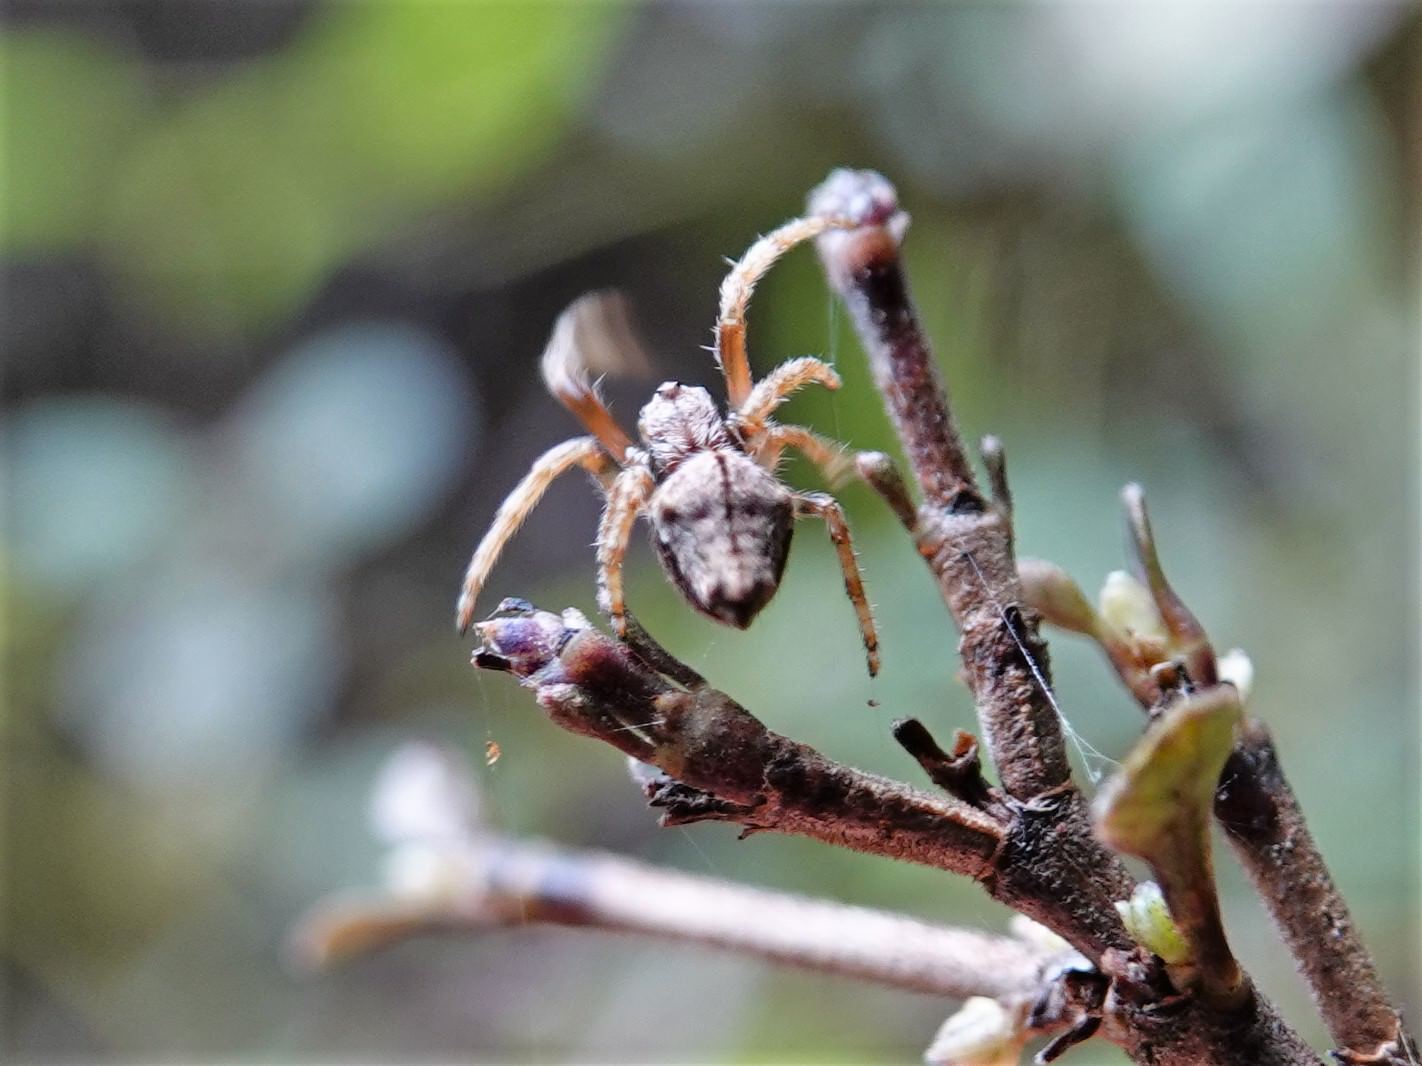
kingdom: Animalia
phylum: Arthropoda
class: Arachnida
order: Araneae
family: Araneidae
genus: Eriophora
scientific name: Eriophora pustulosa
